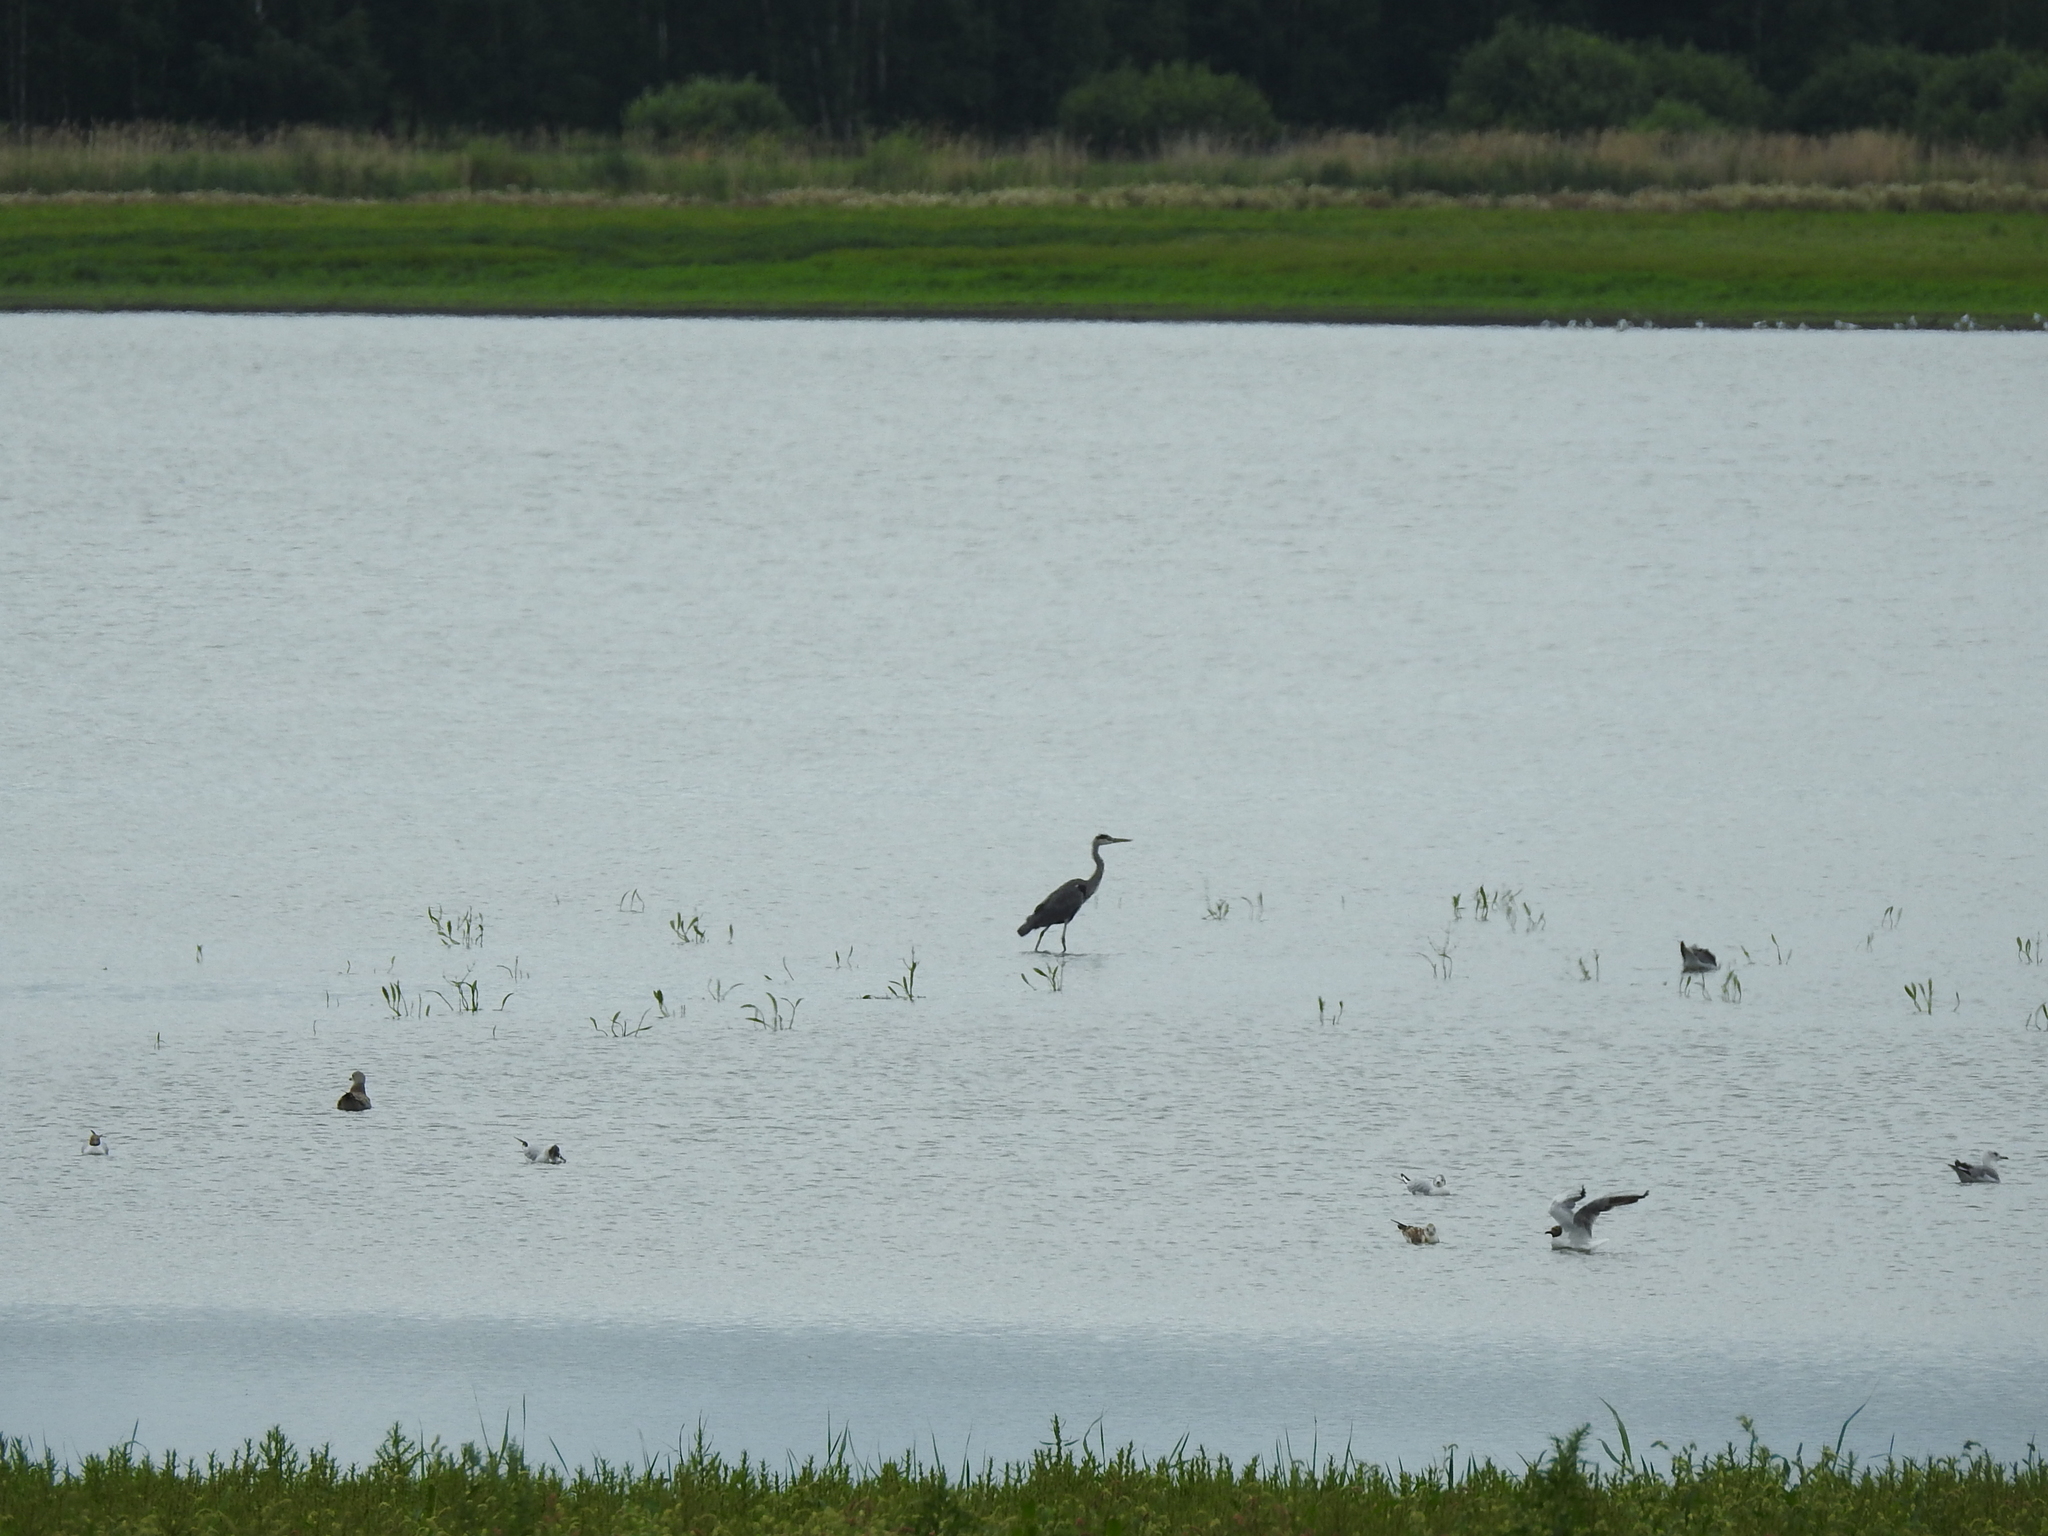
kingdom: Animalia
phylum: Chordata
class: Aves
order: Pelecaniformes
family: Ardeidae
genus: Ardea
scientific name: Ardea cinerea
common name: Grey heron
